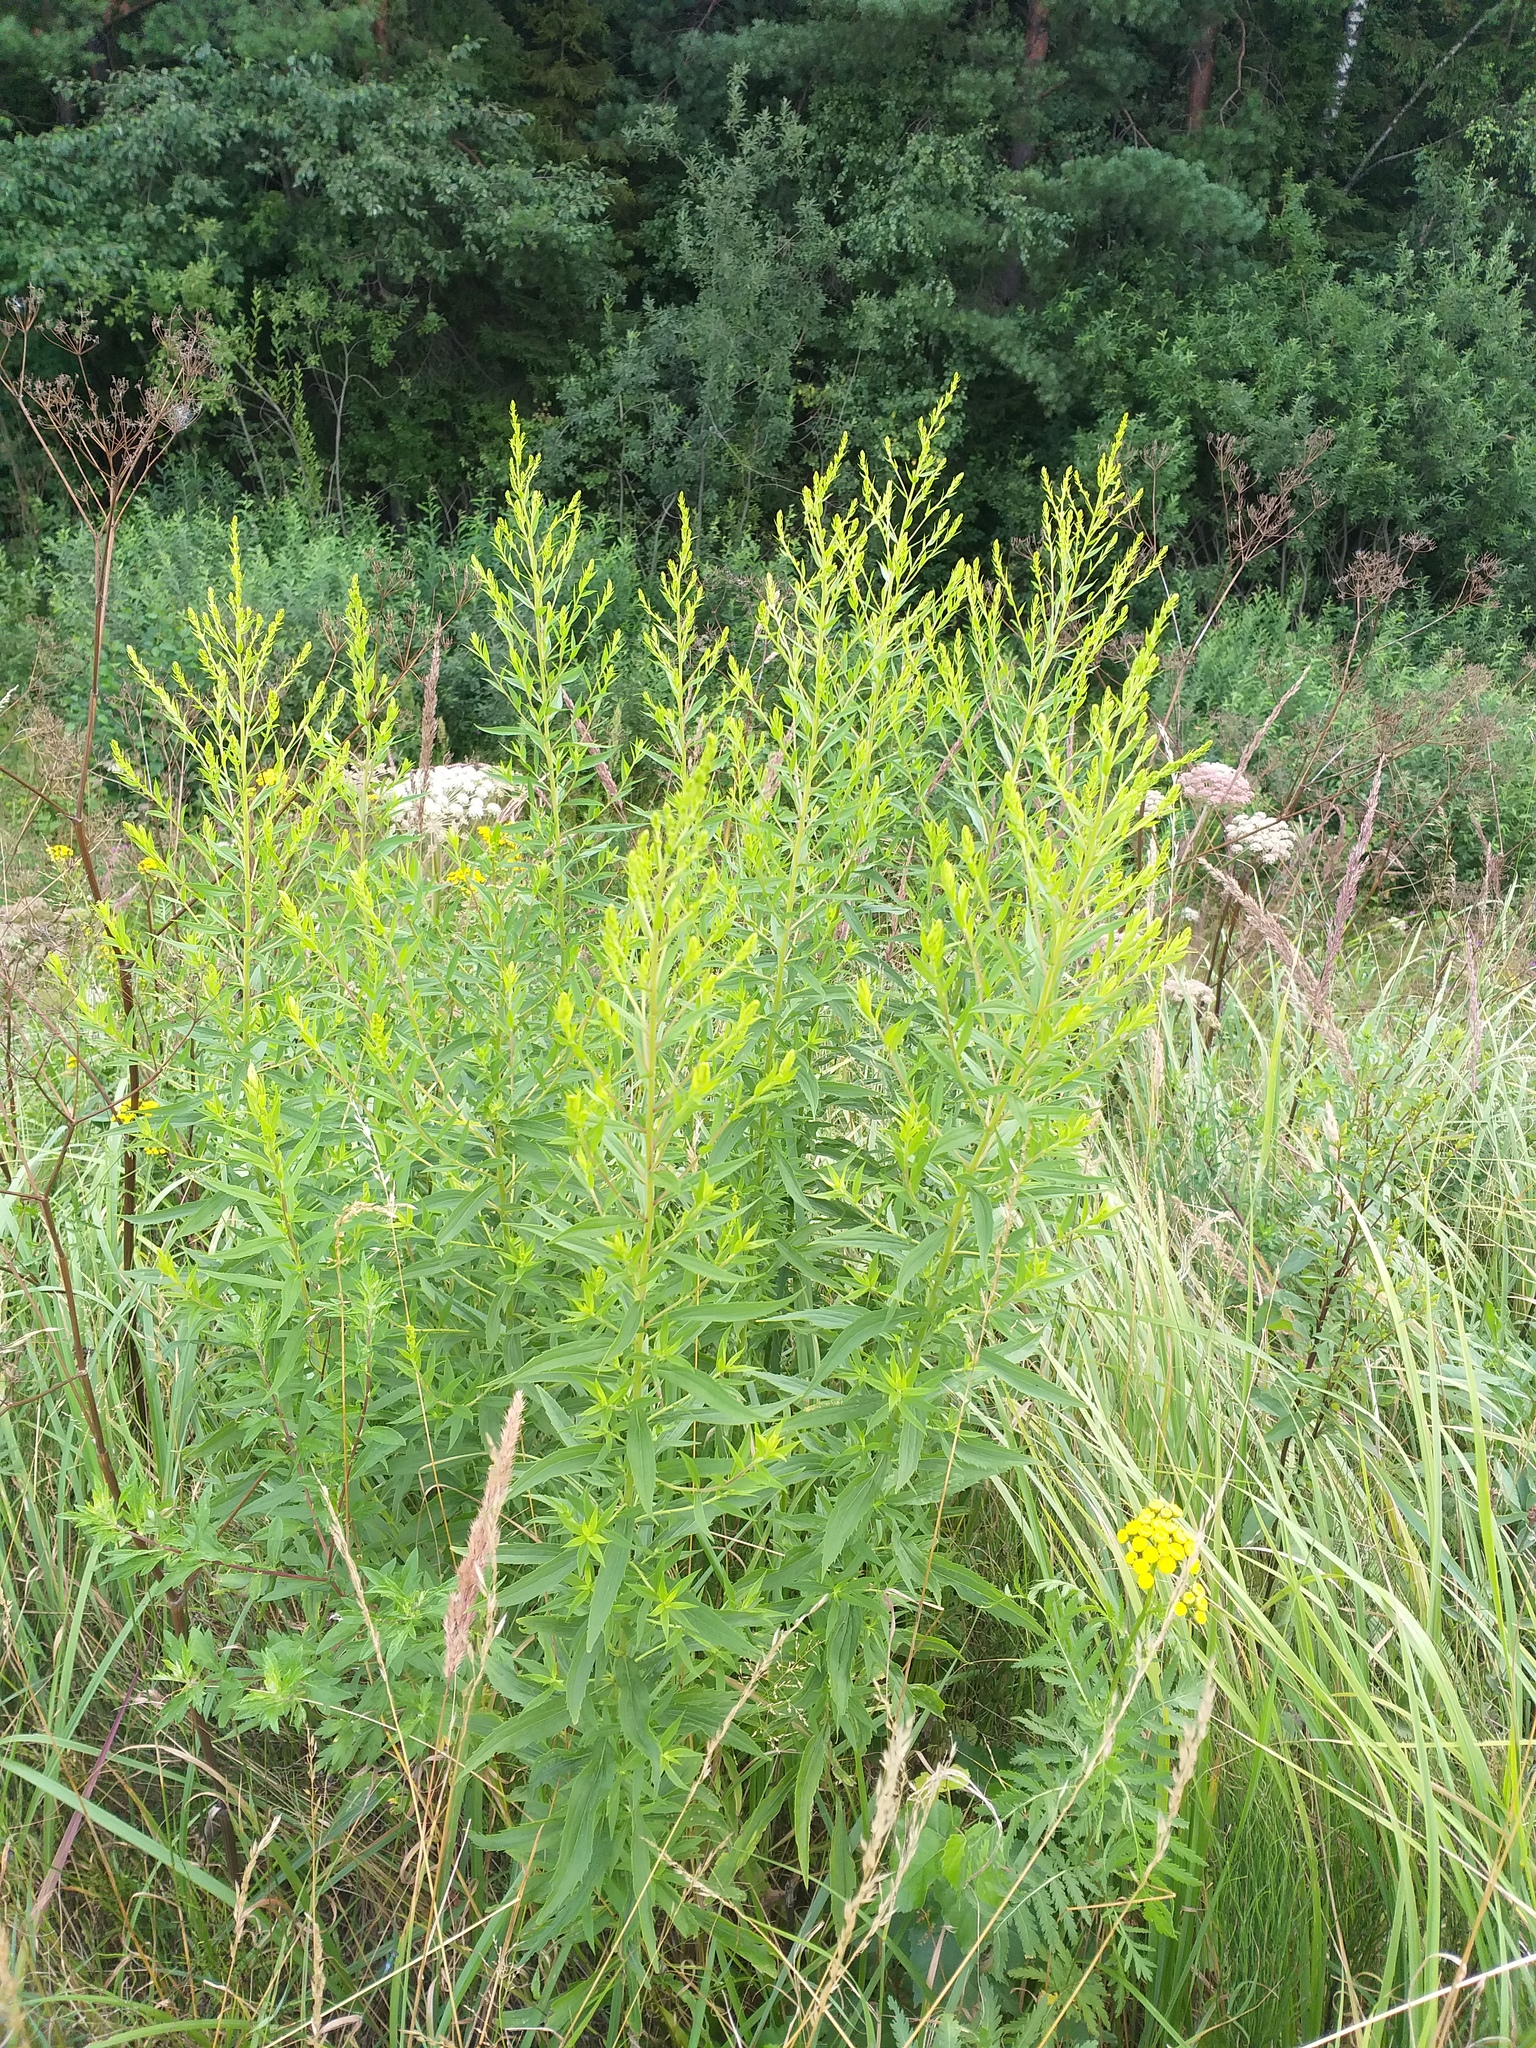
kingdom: Plantae
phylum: Tracheophyta
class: Magnoliopsida
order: Asterales
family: Asteraceae
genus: Solidago
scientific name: Solidago canadensis
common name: Canada goldenrod
